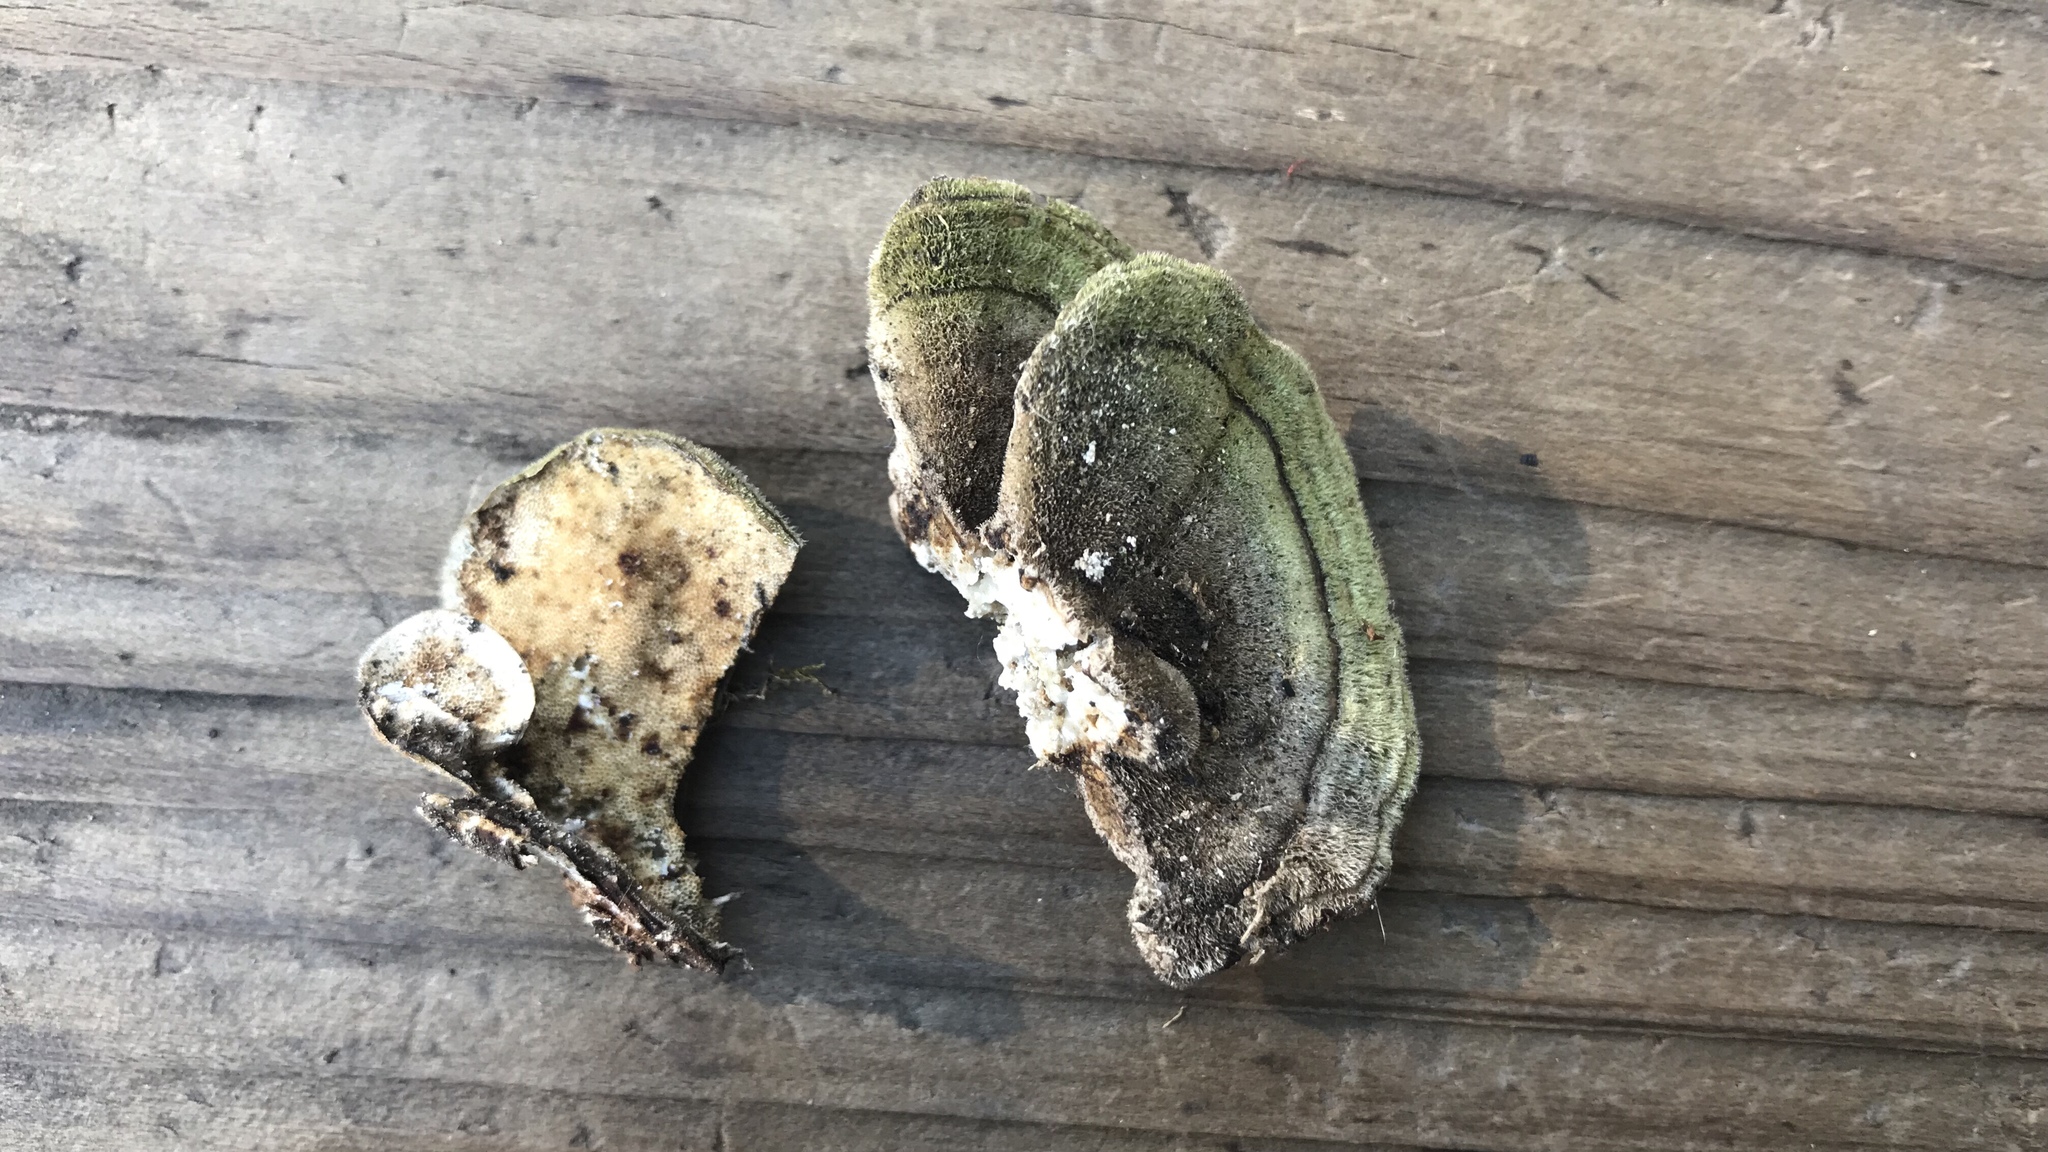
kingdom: Fungi
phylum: Basidiomycota
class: Agaricomycetes
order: Polyporales
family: Polyporaceae
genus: Trametes
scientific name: Trametes versicolor
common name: Turkeytail
